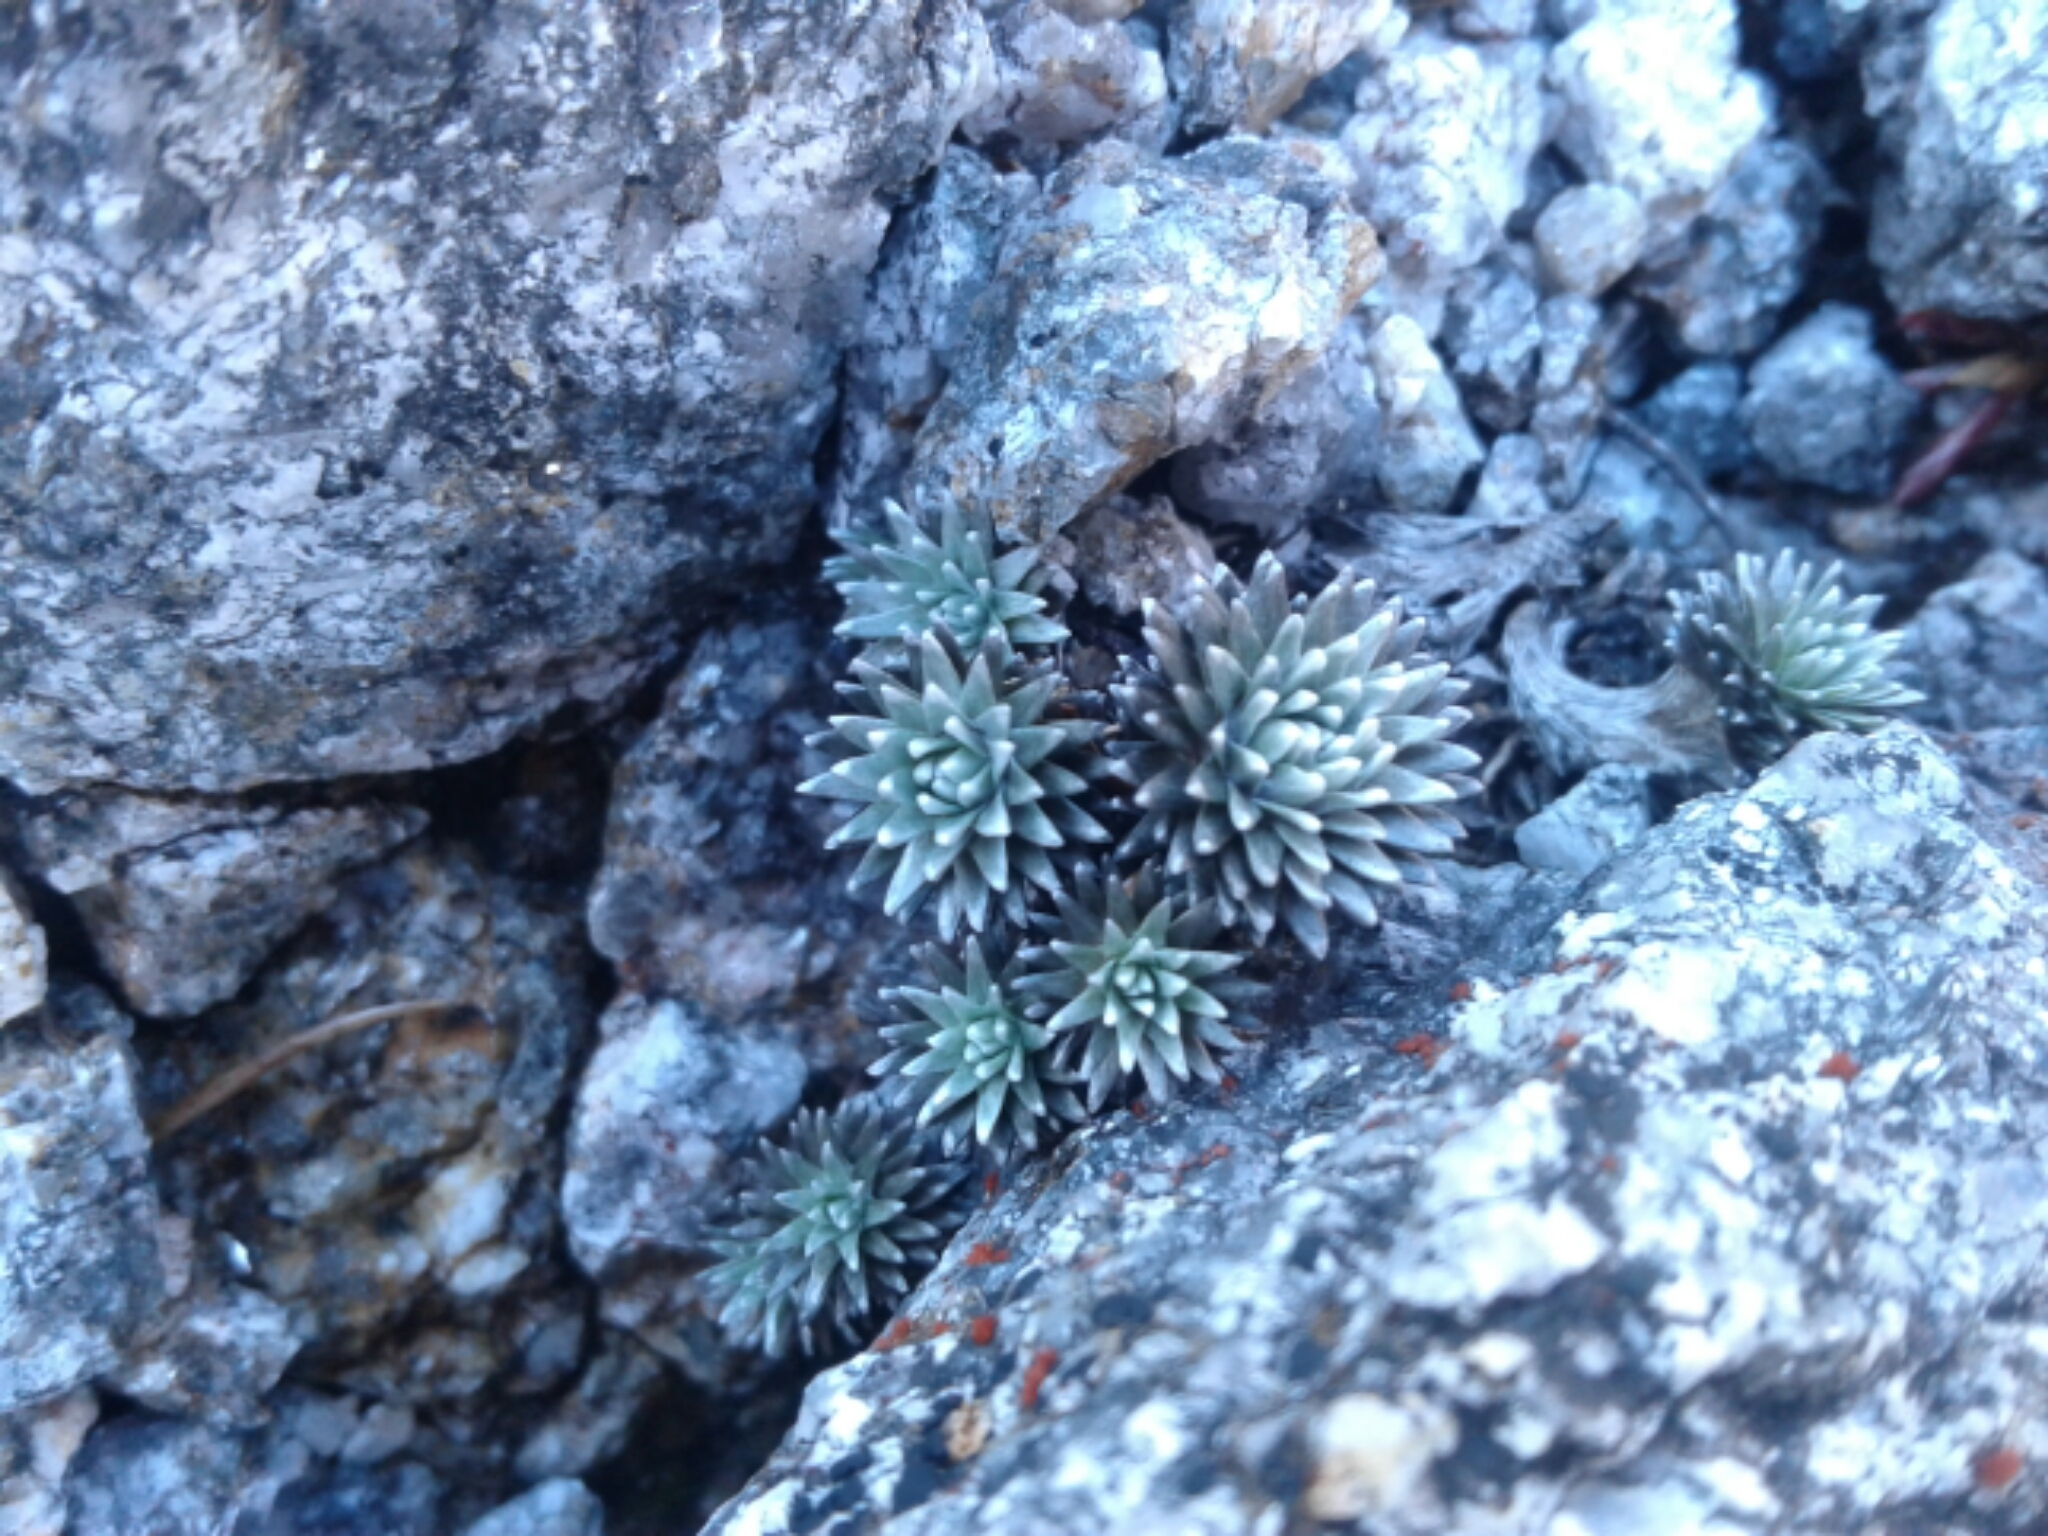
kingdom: Plantae
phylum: Tracheophyta
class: Magnoliopsida
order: Asterales
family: Asteraceae
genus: Raoulia
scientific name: Raoulia grandiflora
